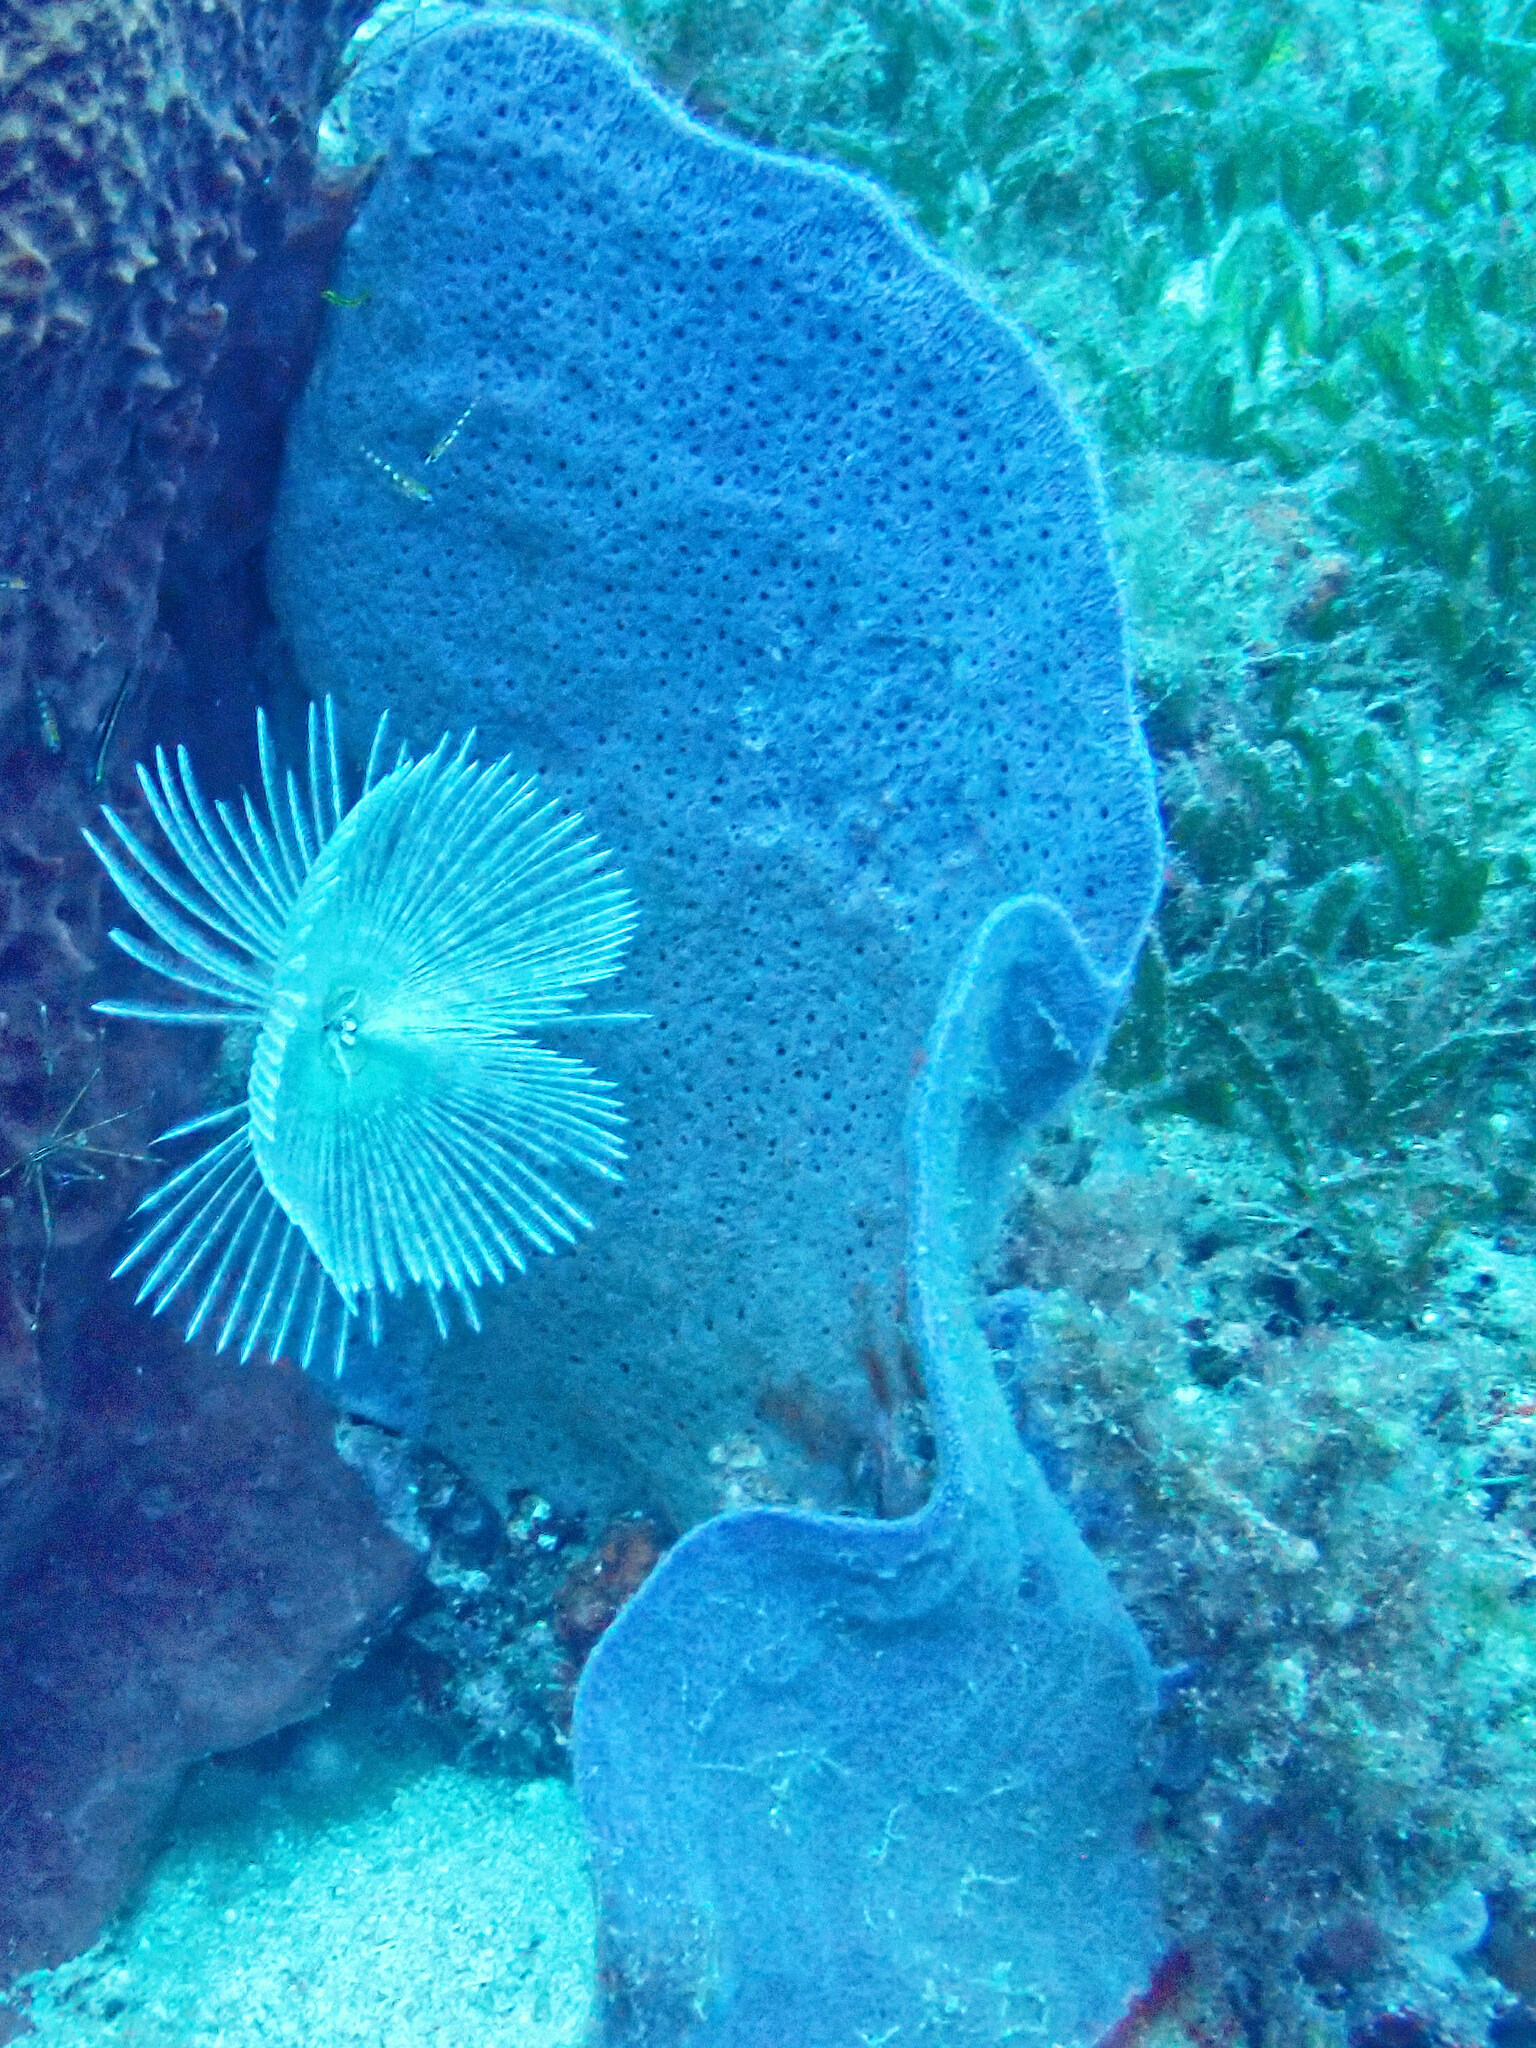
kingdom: Animalia
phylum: Porifera
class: Demospongiae
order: Haplosclerida
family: Niphatidae
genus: Amphimedon
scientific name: Amphimedon caribica
